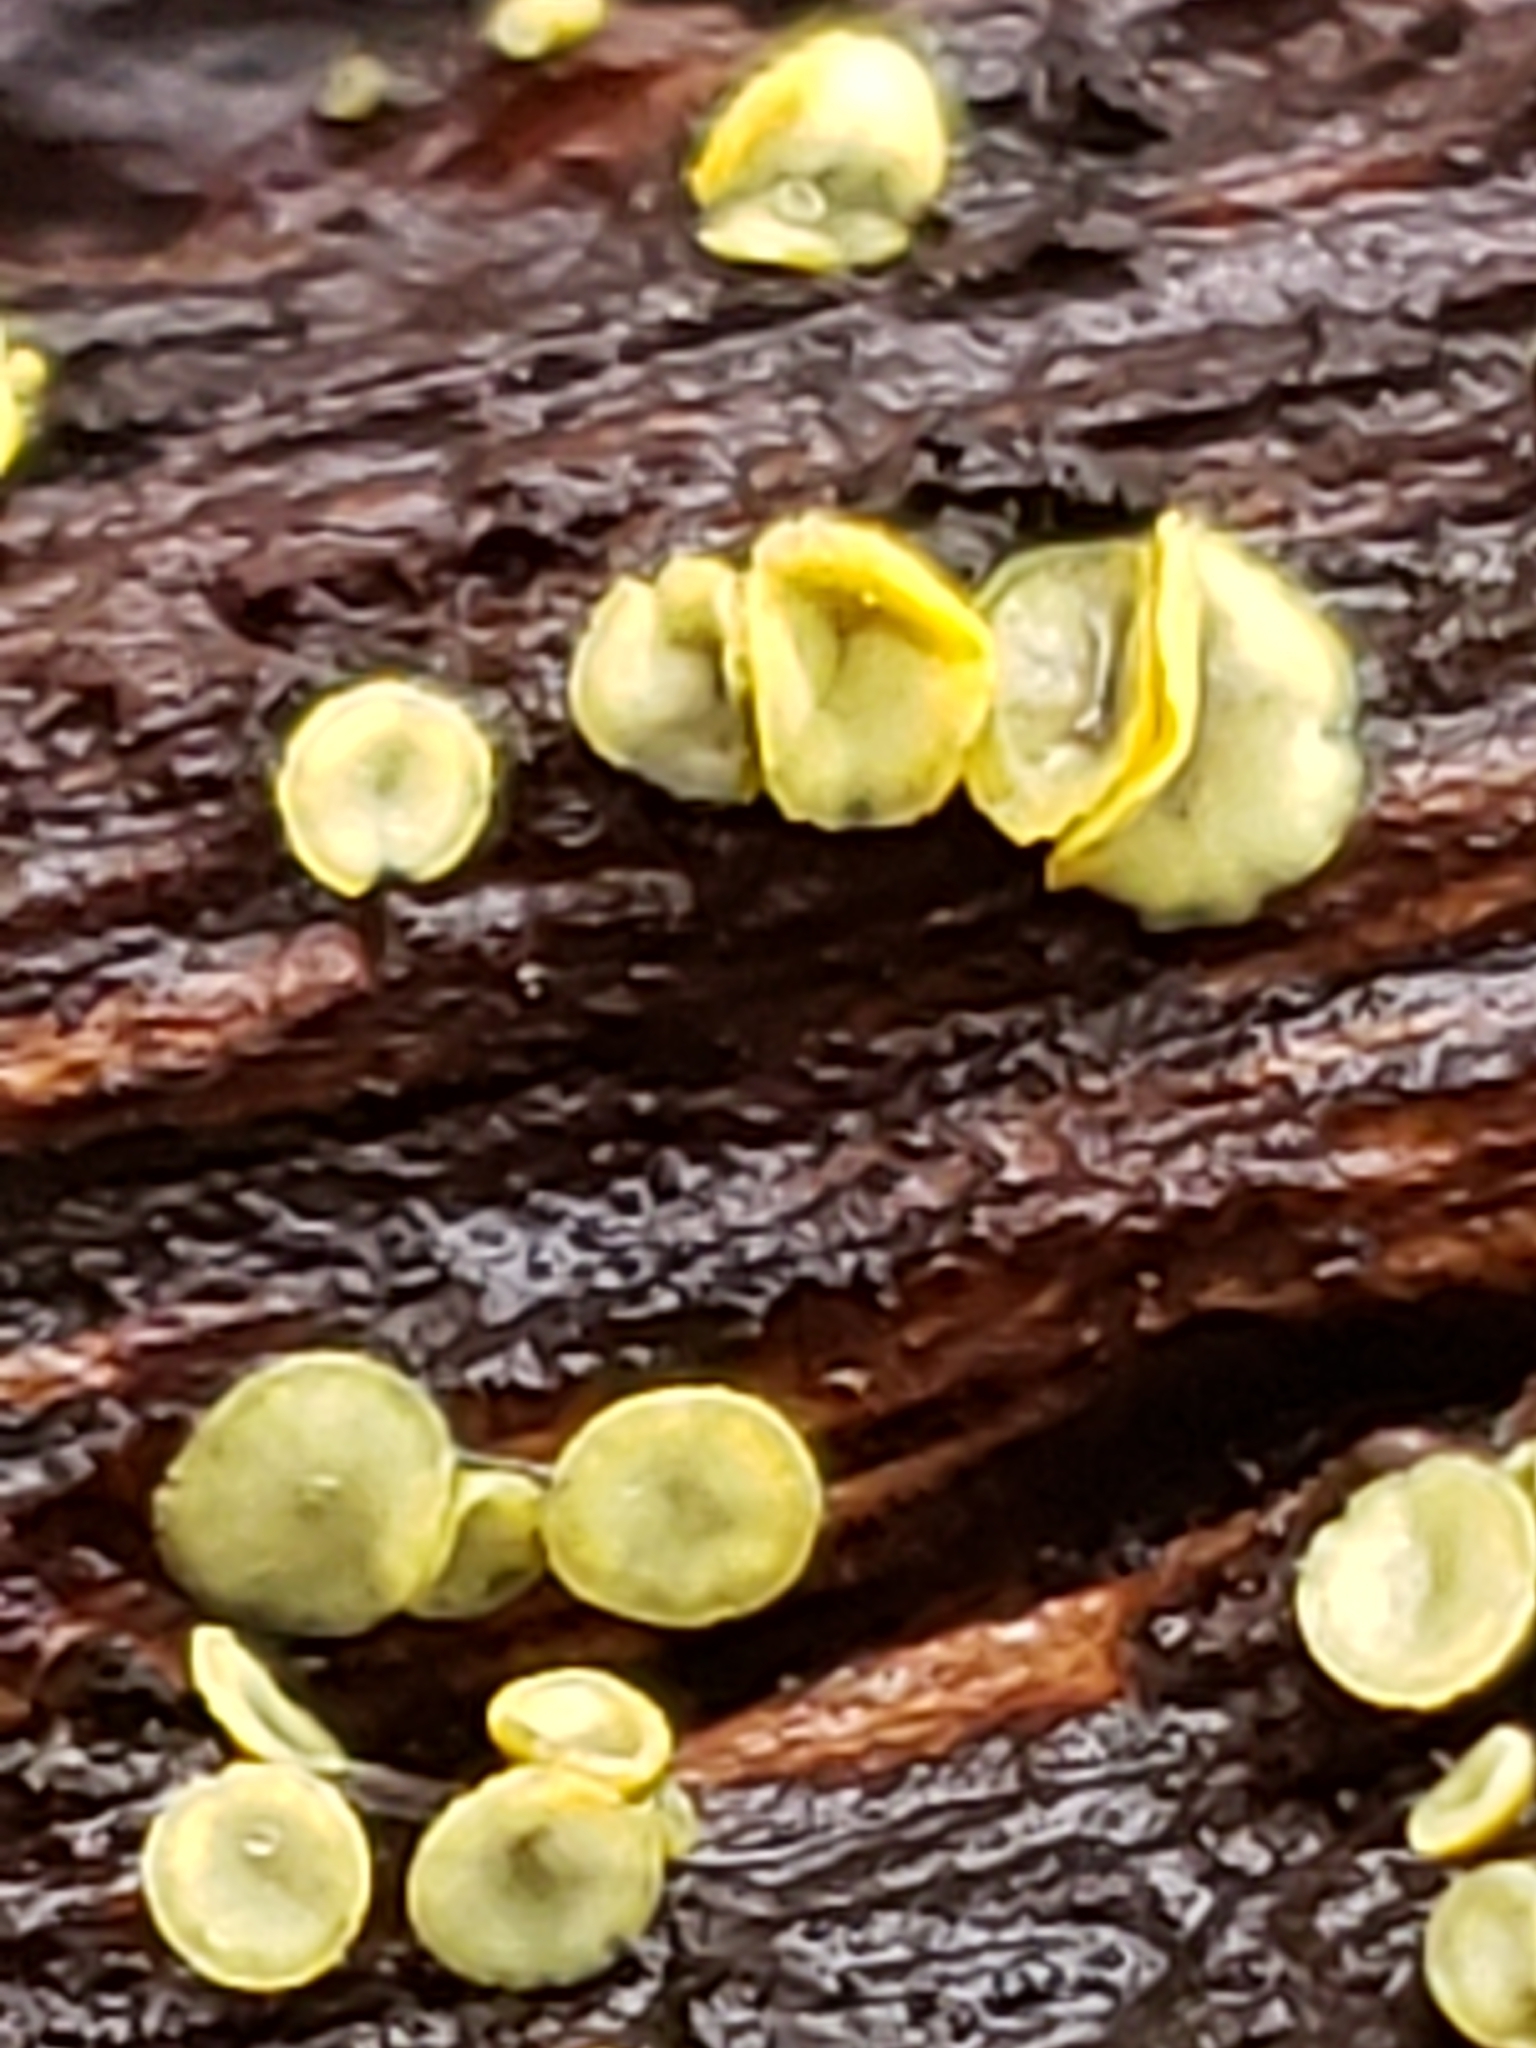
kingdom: Fungi
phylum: Ascomycota
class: Leotiomycetes
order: Helotiales
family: Chlorospleniaceae
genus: Chlorosplenium
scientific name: Chlorosplenium chlora
